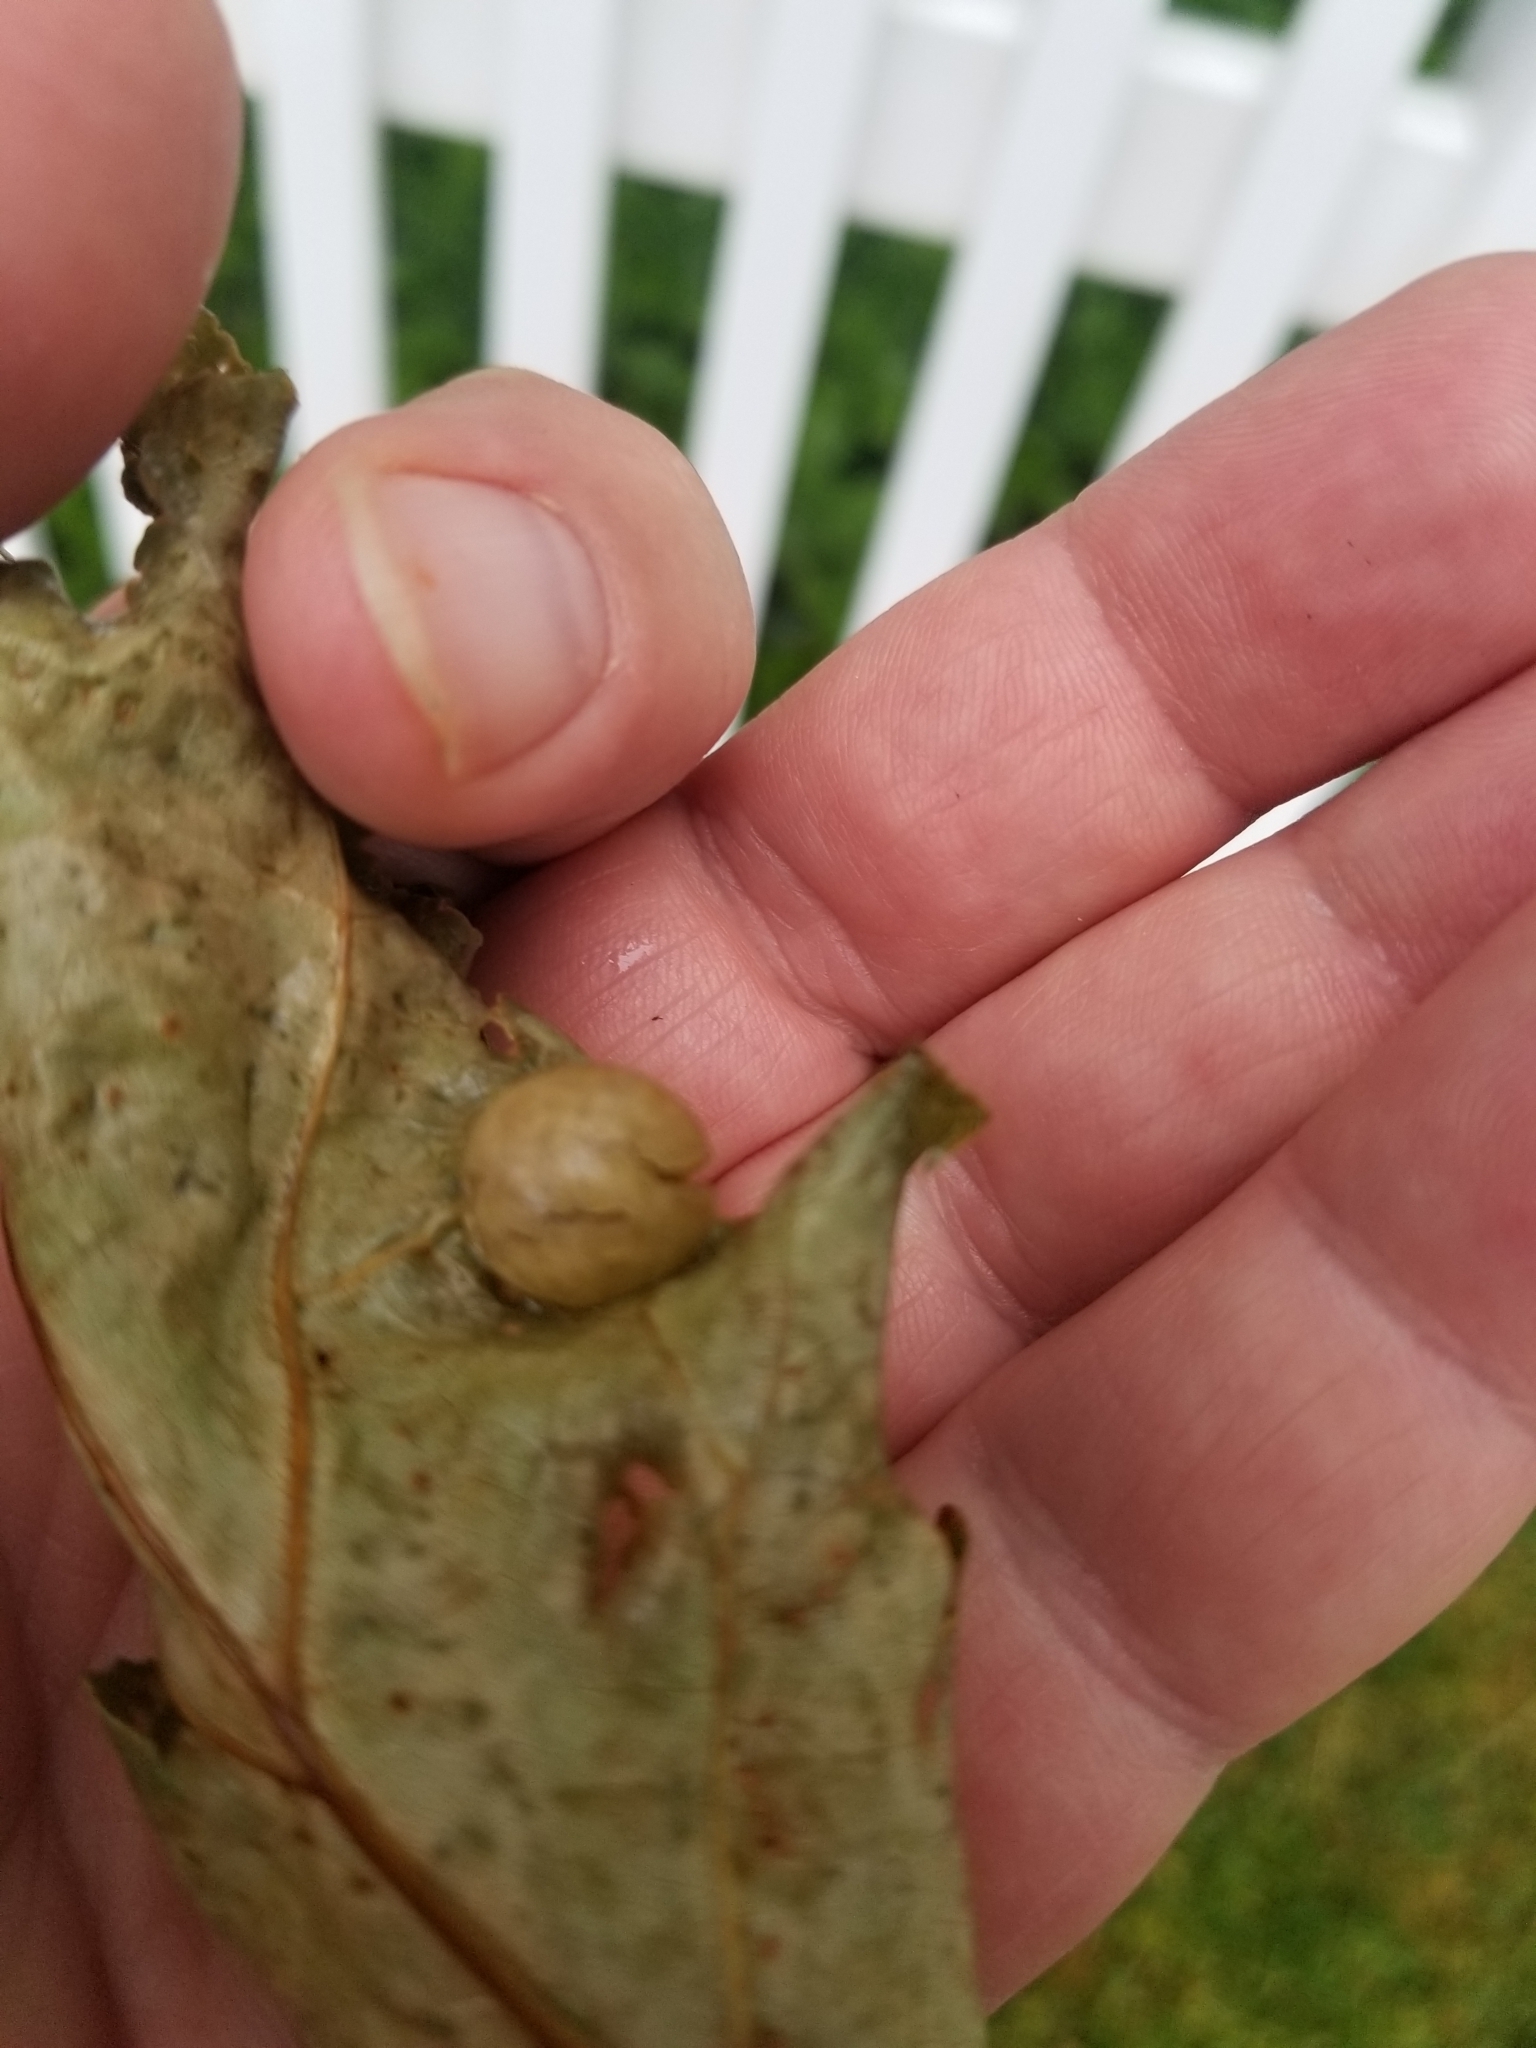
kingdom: Animalia
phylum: Arthropoda
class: Insecta
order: Hymenoptera
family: Cynipidae
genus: Amphibolips
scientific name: Amphibolips
